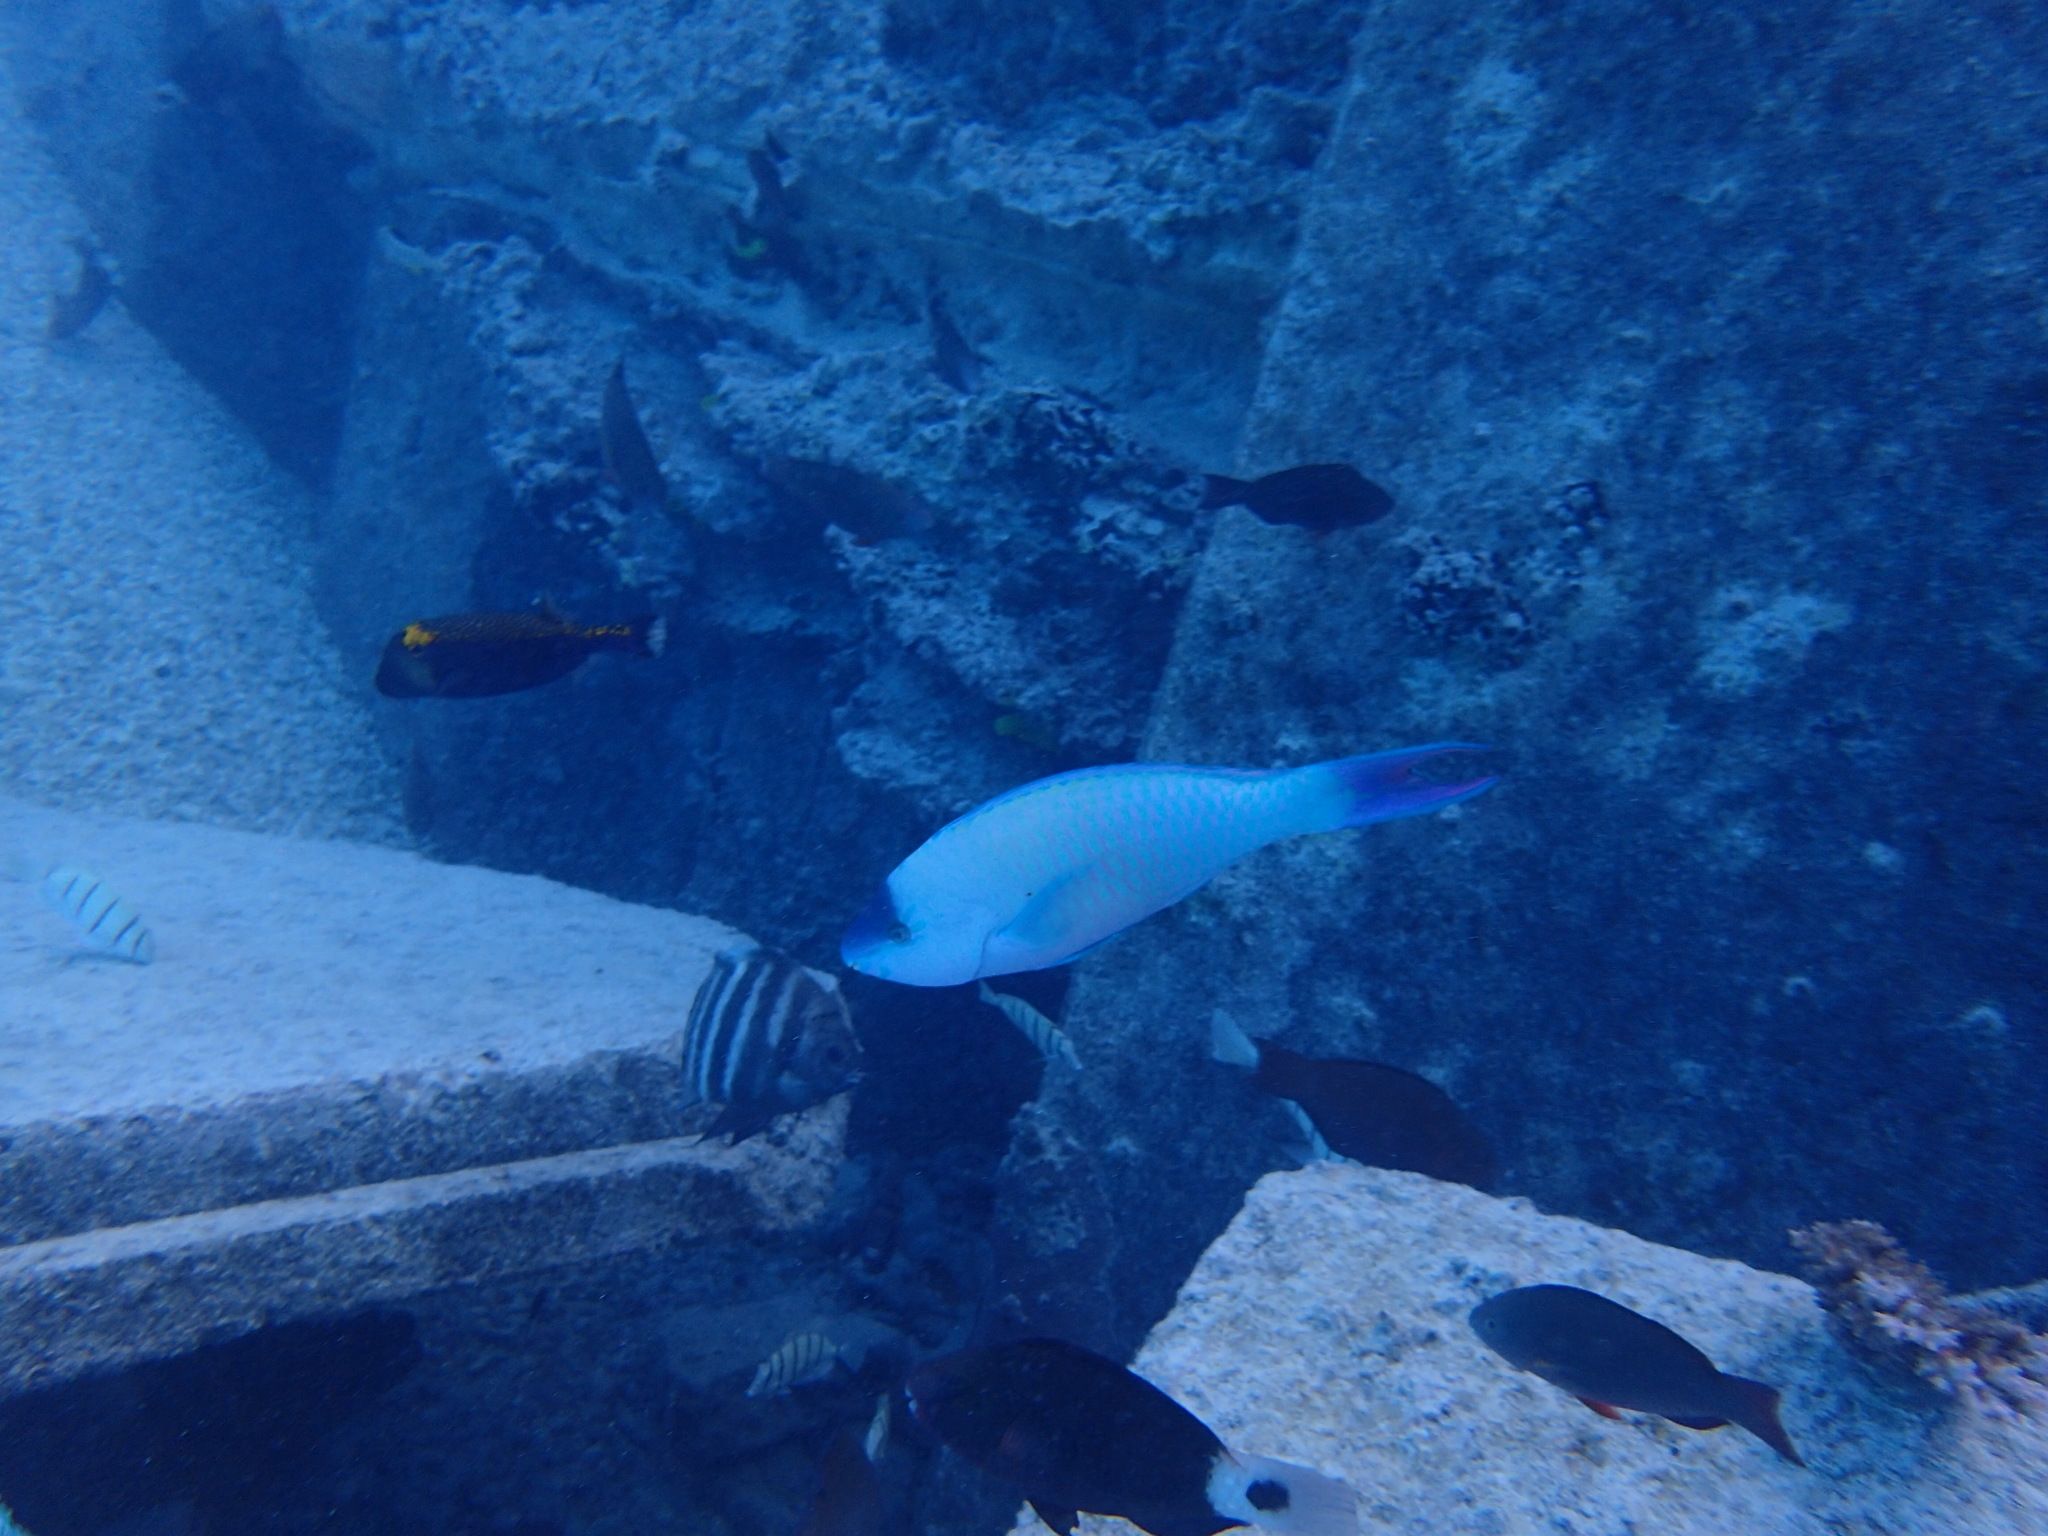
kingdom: Animalia
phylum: Chordata
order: Perciformes
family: Scaridae
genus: Scarus
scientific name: Scarus psittacus
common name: Palenose parrotfish
